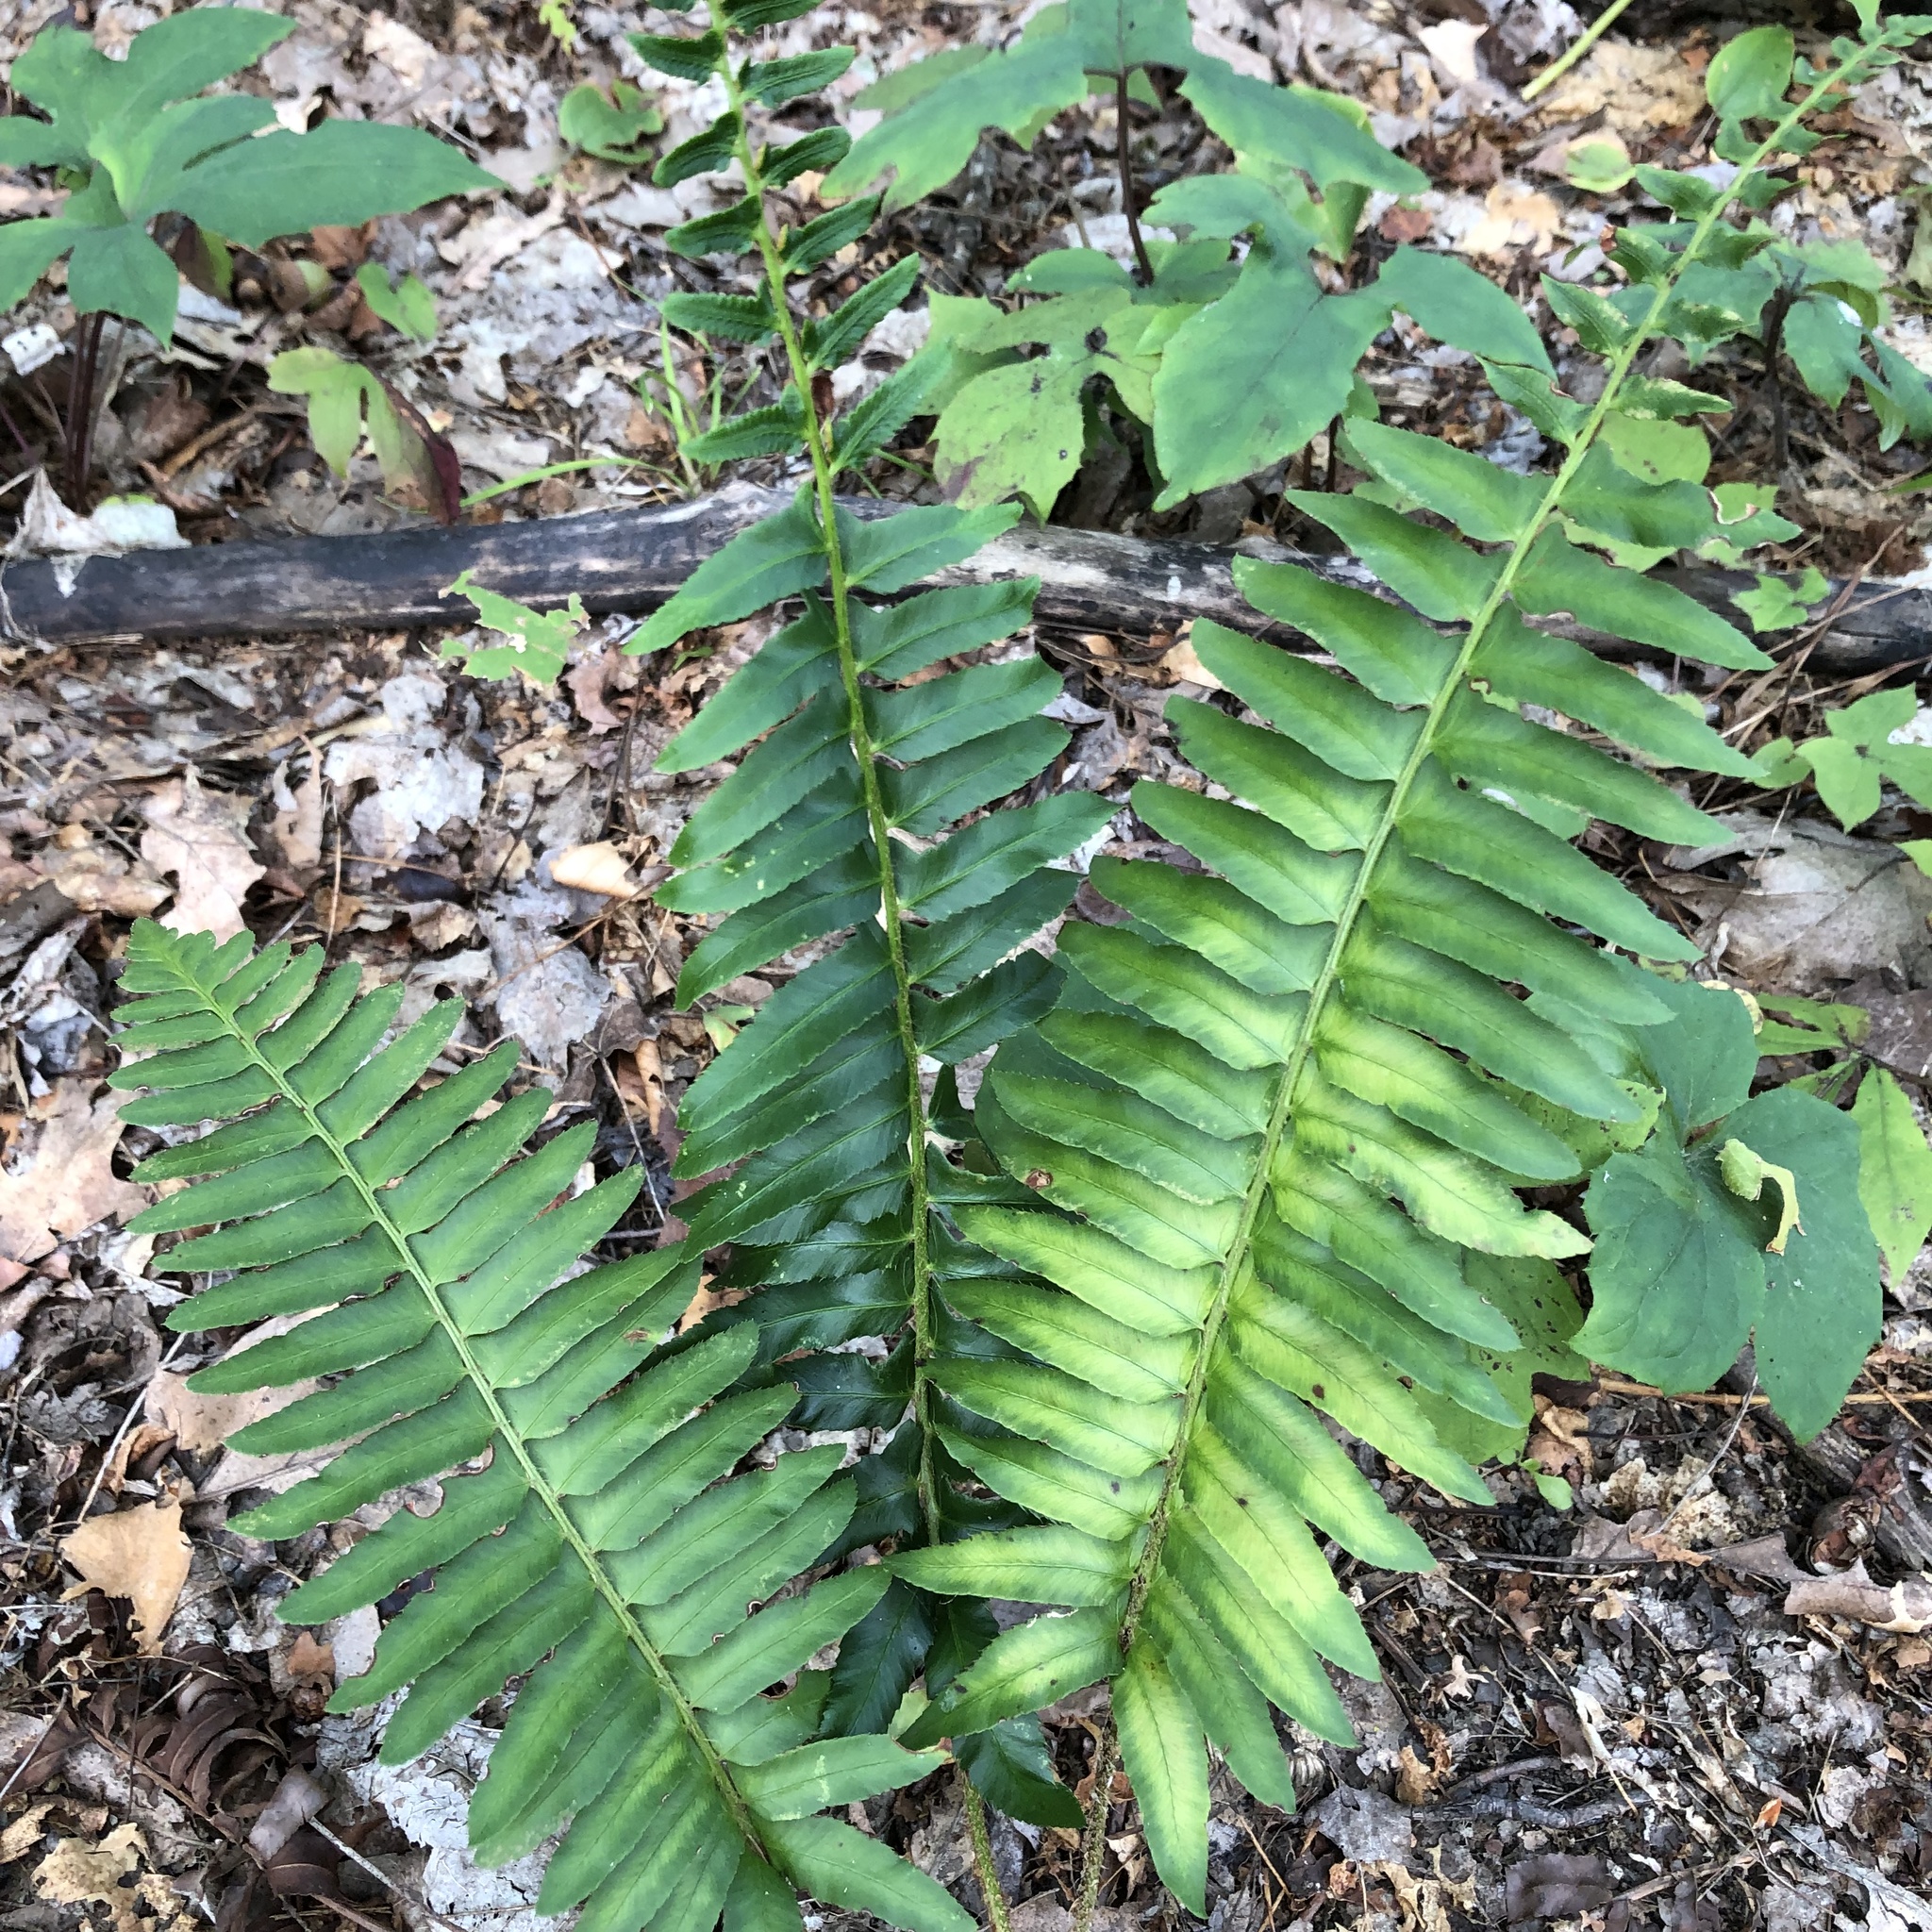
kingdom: Plantae
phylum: Tracheophyta
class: Polypodiopsida
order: Polypodiales
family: Dryopteridaceae
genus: Polystichum
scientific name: Polystichum acrostichoides
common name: Christmas fern
